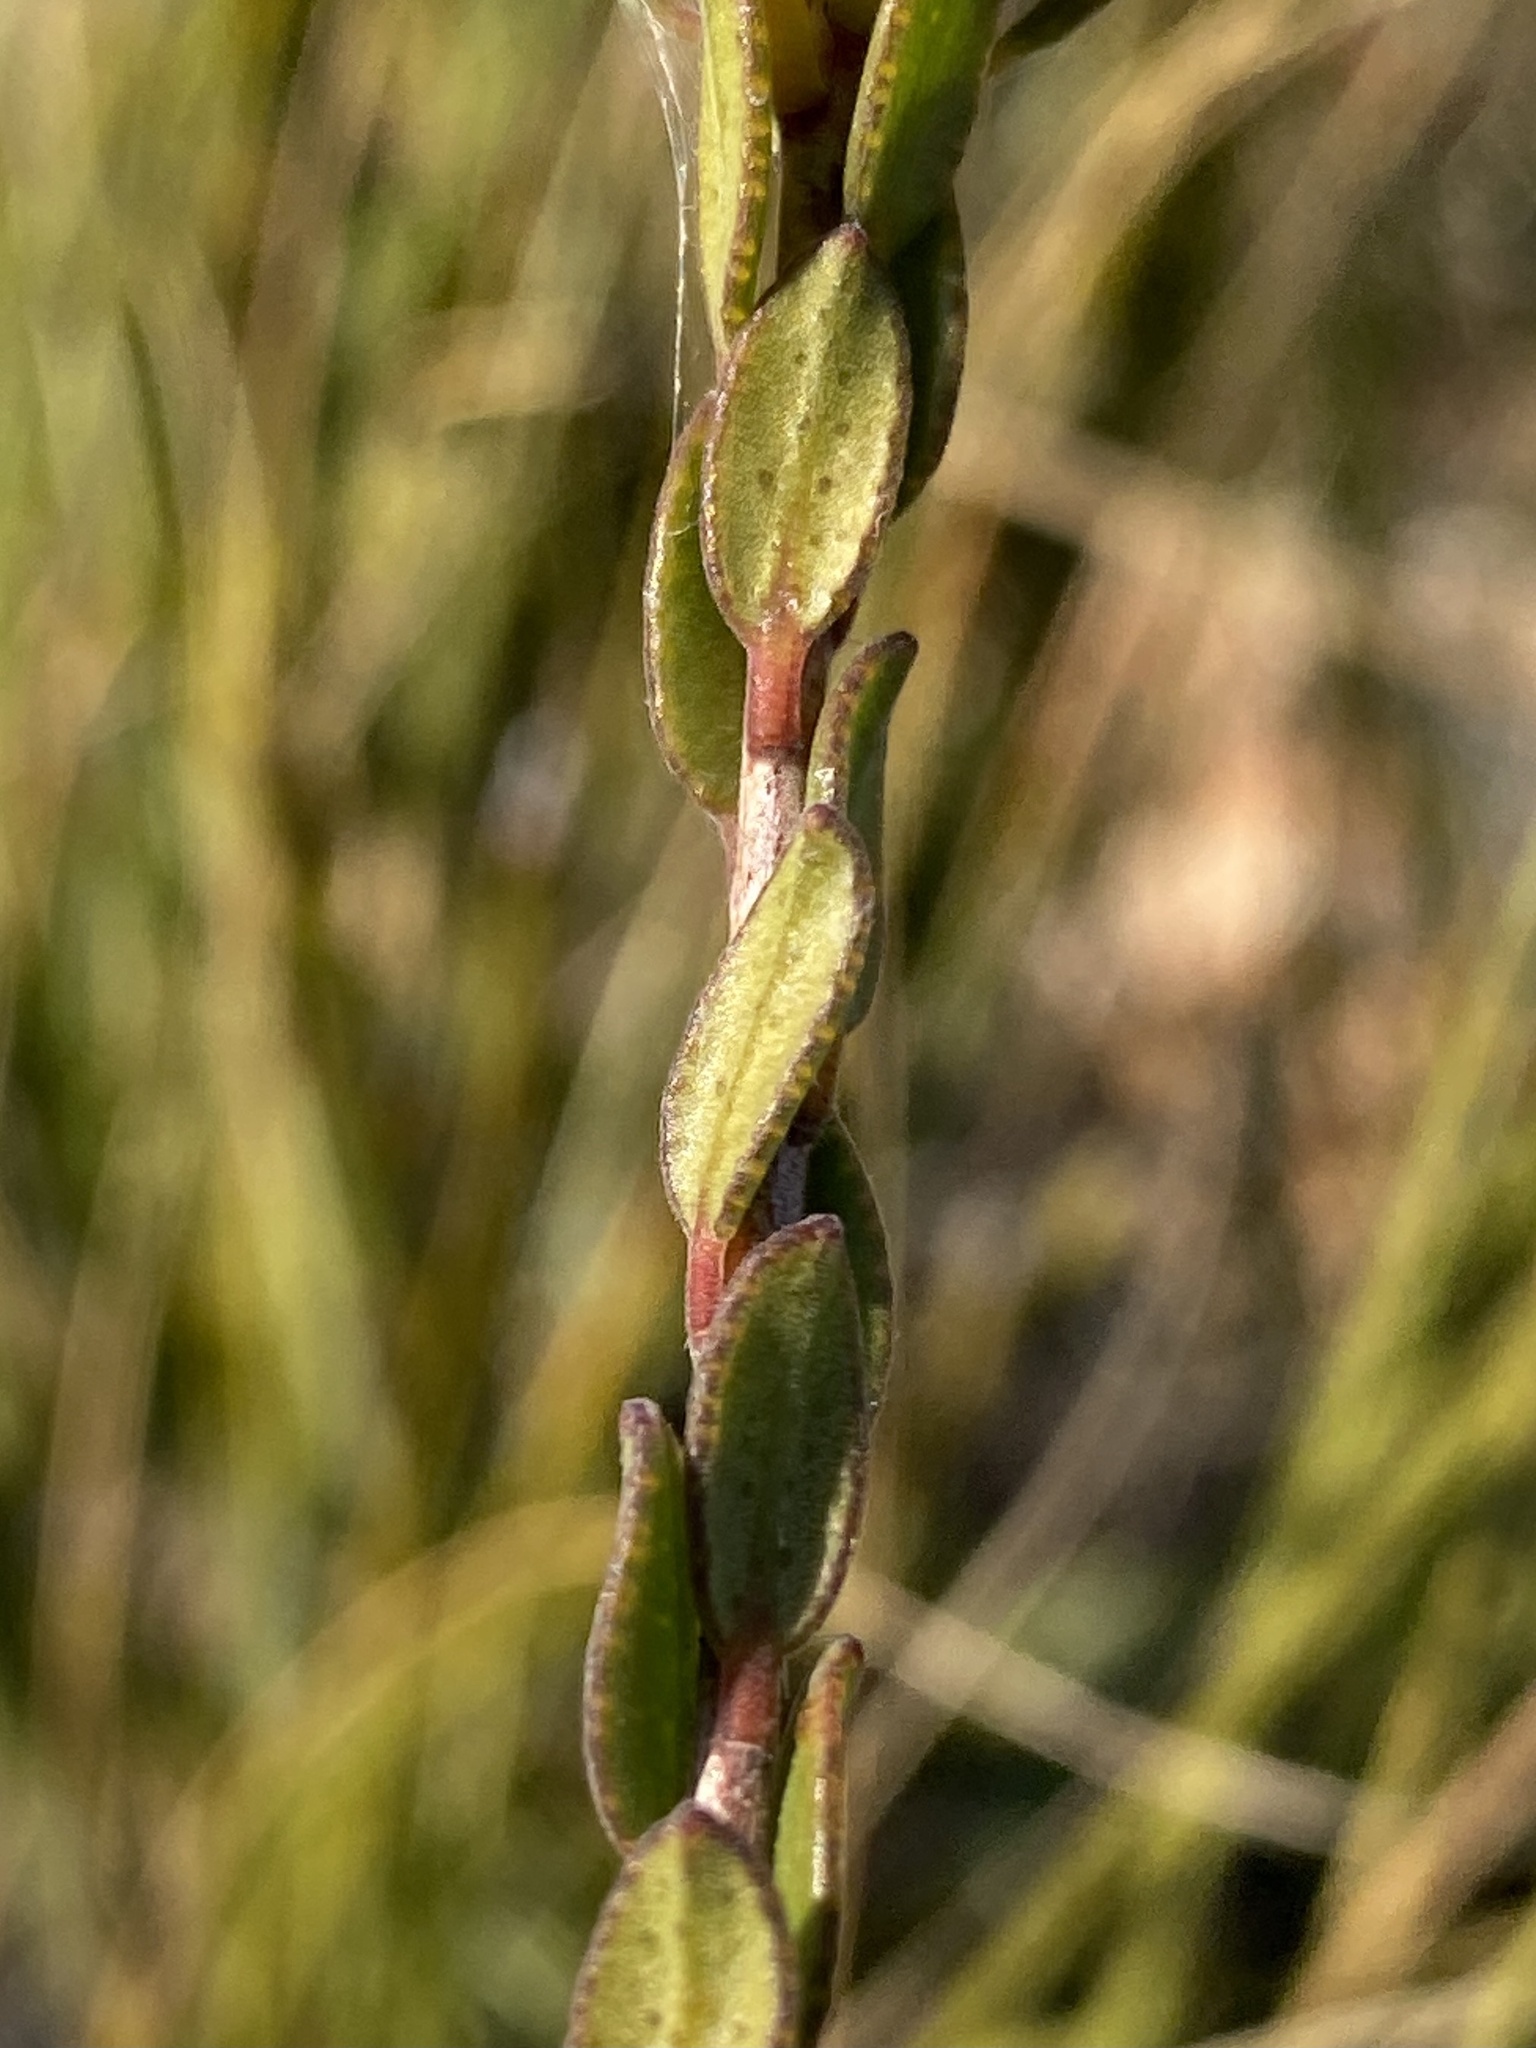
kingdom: Plantae
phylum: Tracheophyta
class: Magnoliopsida
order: Sapindales
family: Rutaceae
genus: Agathosma
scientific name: Agathosma adenandriflora
